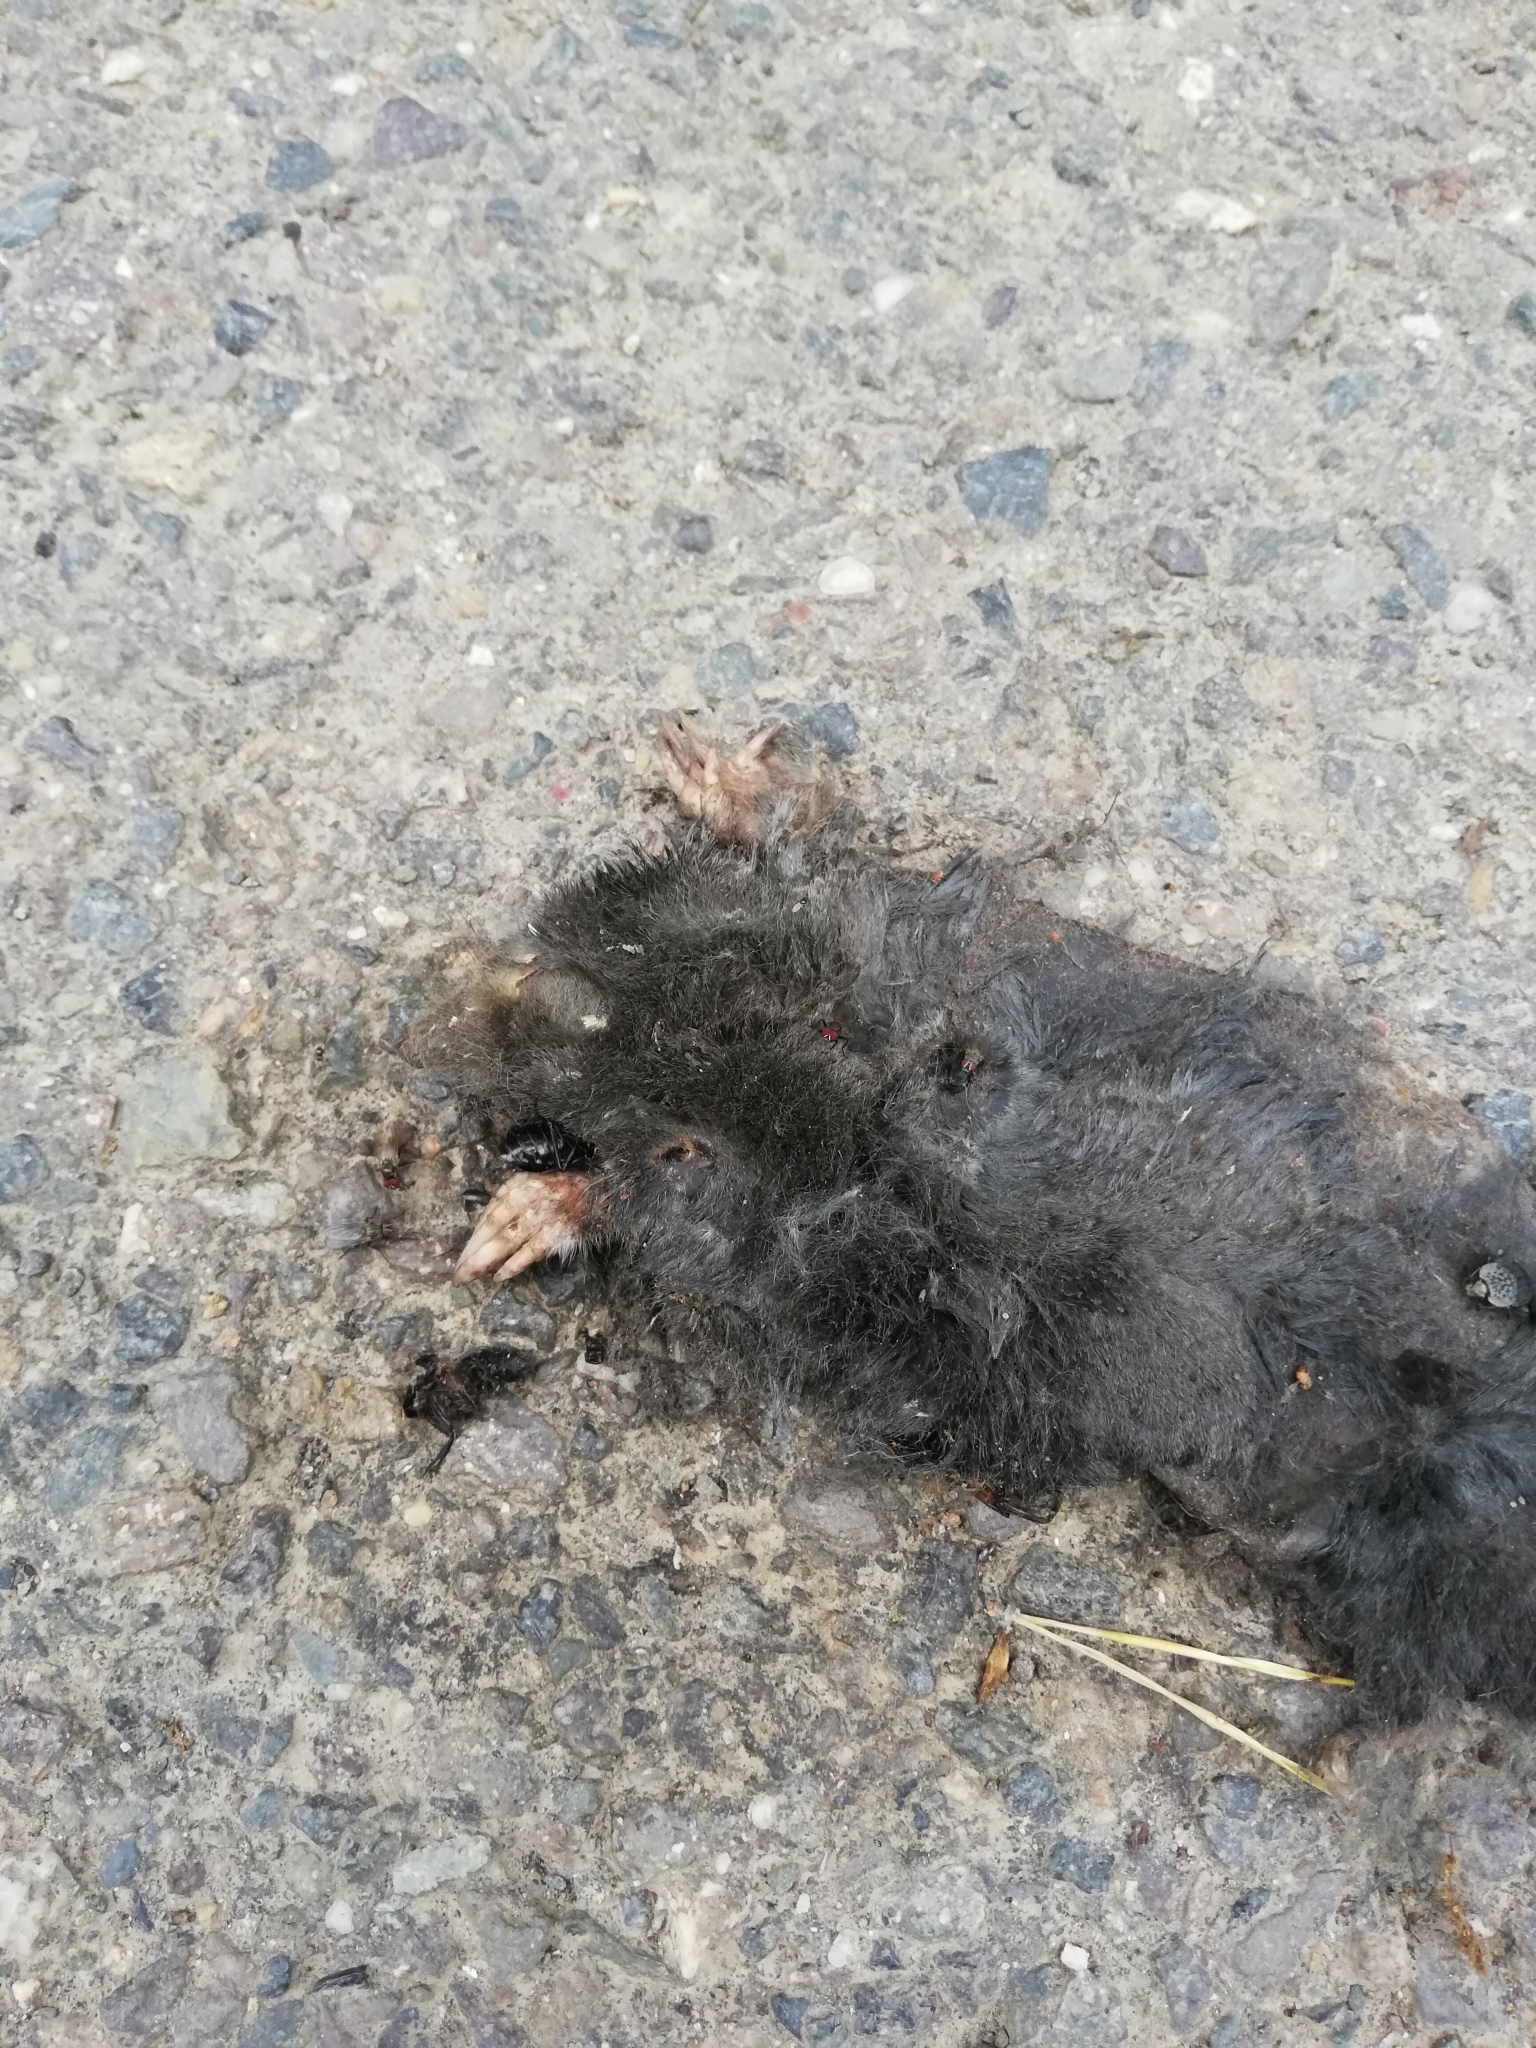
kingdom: Animalia
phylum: Chordata
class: Mammalia
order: Soricomorpha
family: Talpidae
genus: Talpa
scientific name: Talpa europaea
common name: European mole
